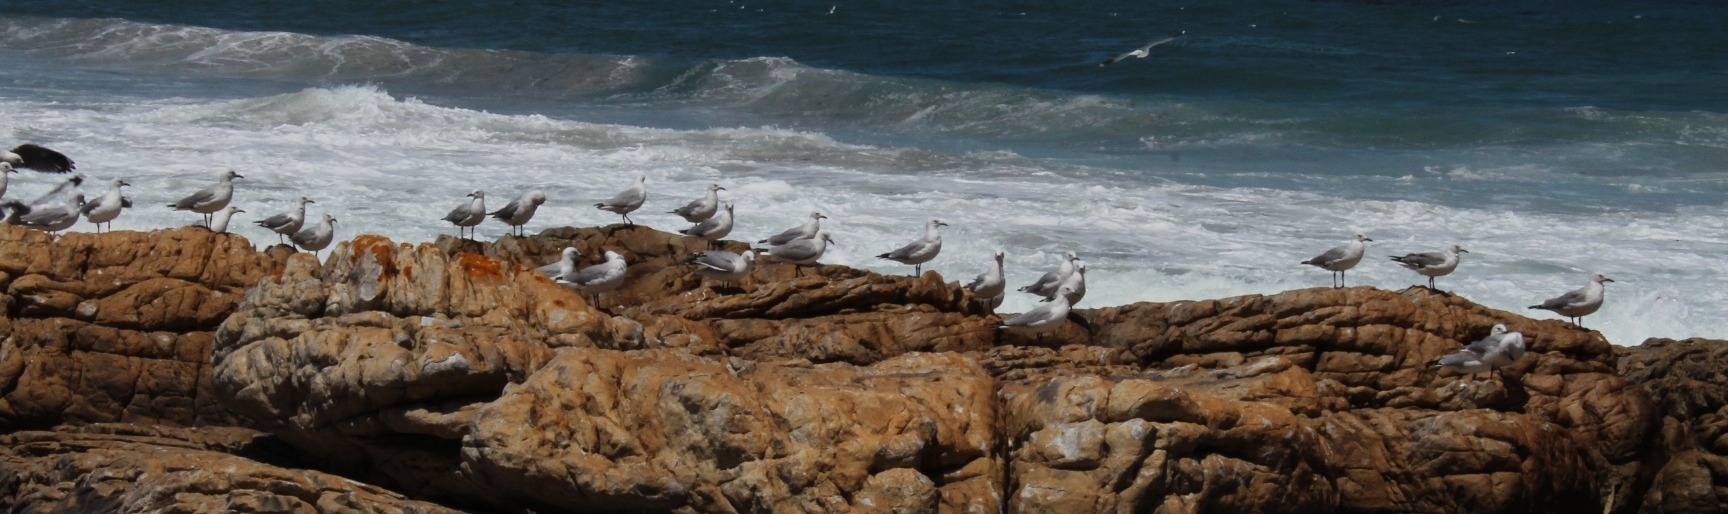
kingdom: Animalia
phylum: Chordata
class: Aves
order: Charadriiformes
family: Laridae
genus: Chroicocephalus
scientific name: Chroicocephalus hartlaubii
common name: Hartlaub's gull
